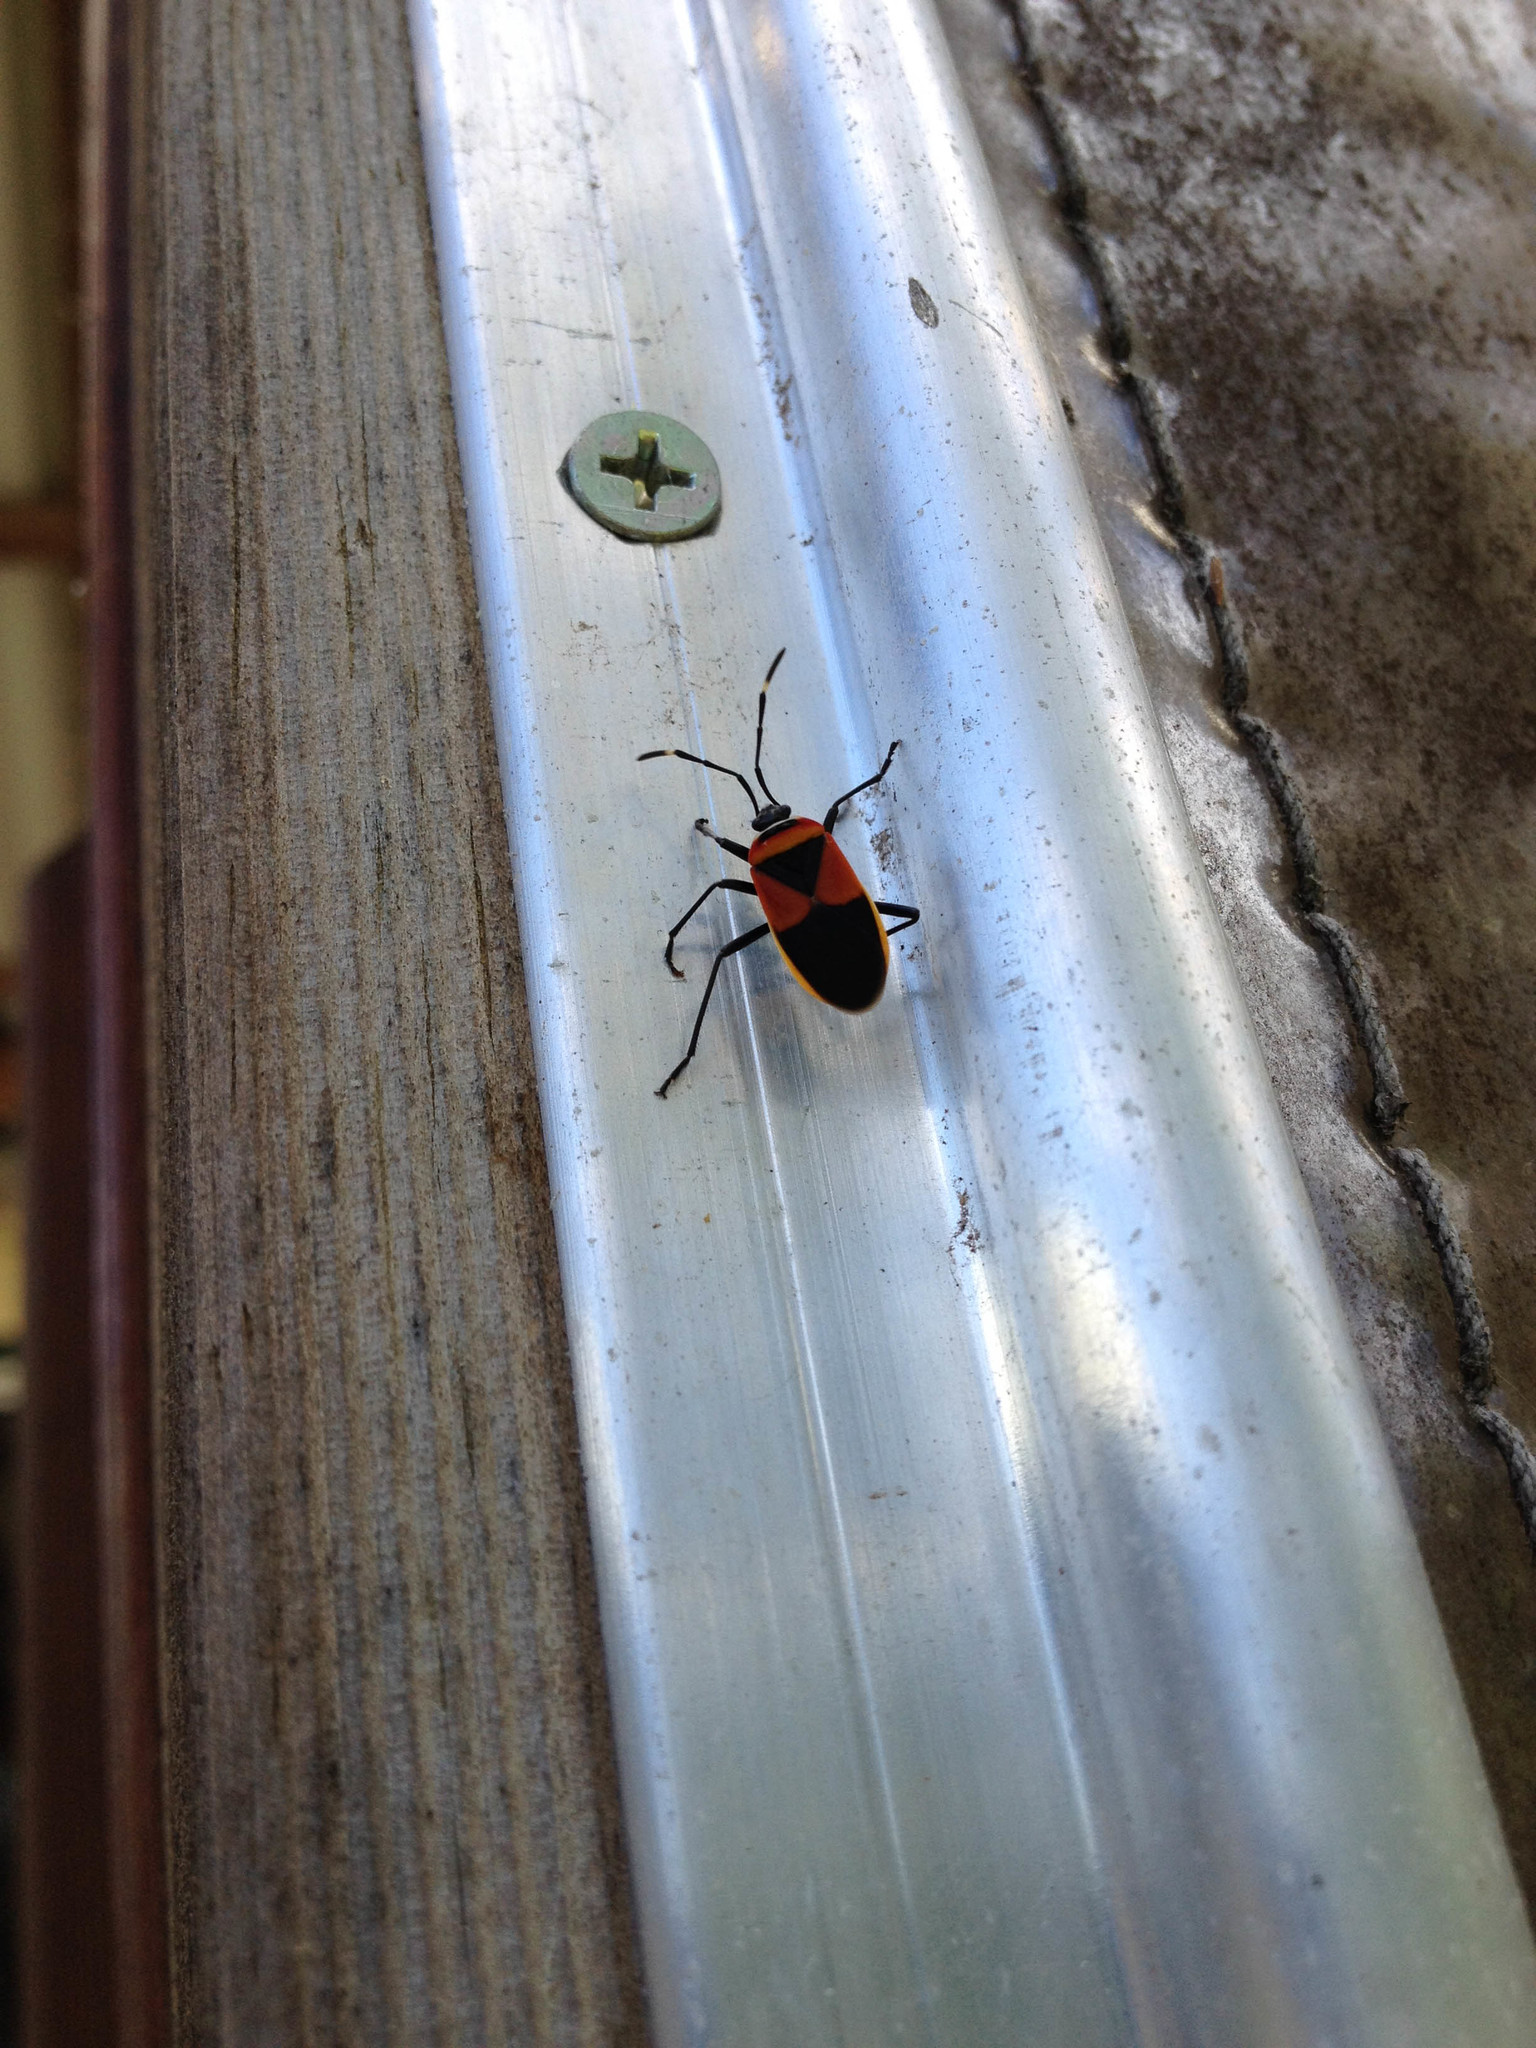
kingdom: Animalia
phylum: Arthropoda
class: Insecta
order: Hemiptera
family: Pyrrhocoridae
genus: Dindymus
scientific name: Dindymus
